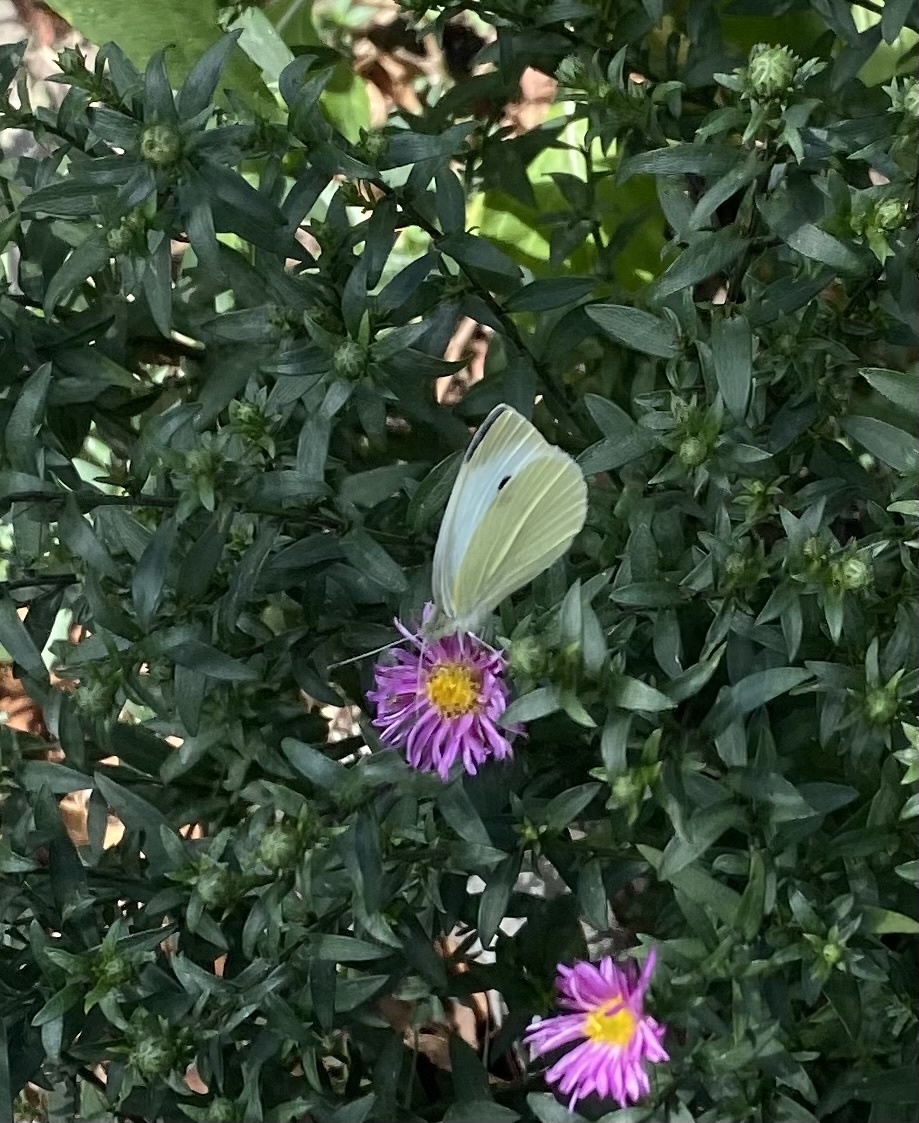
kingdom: Animalia
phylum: Arthropoda
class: Insecta
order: Lepidoptera
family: Pieridae
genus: Pieris
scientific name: Pieris rapae
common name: Small white
